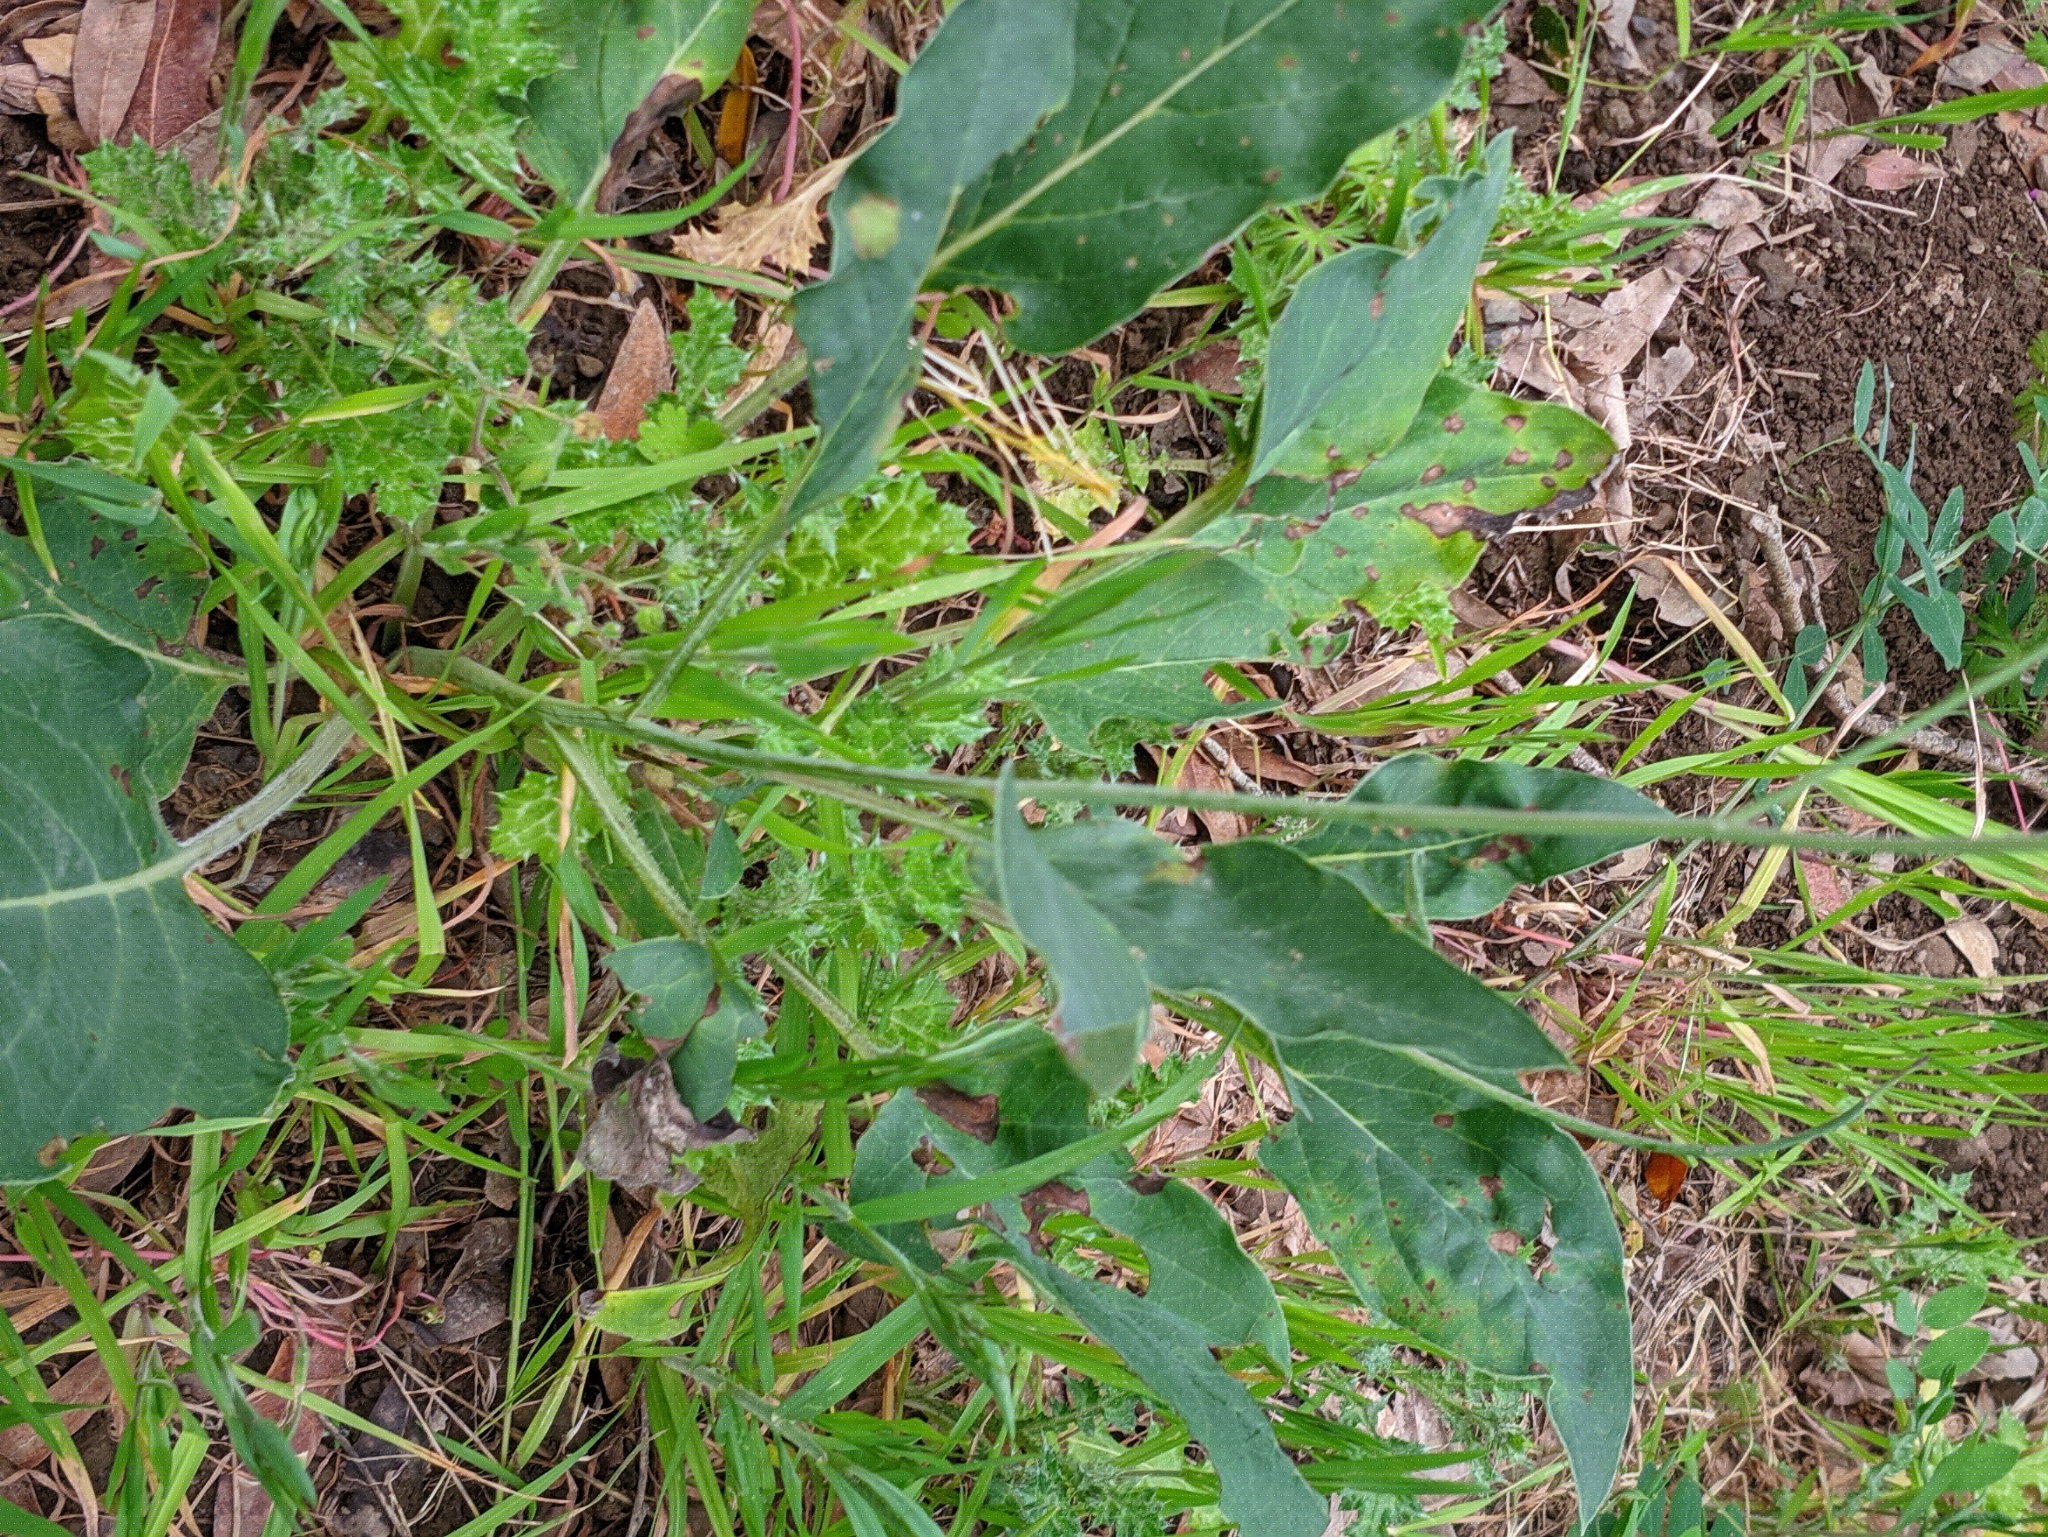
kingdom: Plantae
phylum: Tracheophyta
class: Magnoliopsida
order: Boraginales
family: Boraginaceae
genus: Adelinia
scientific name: Adelinia grande
